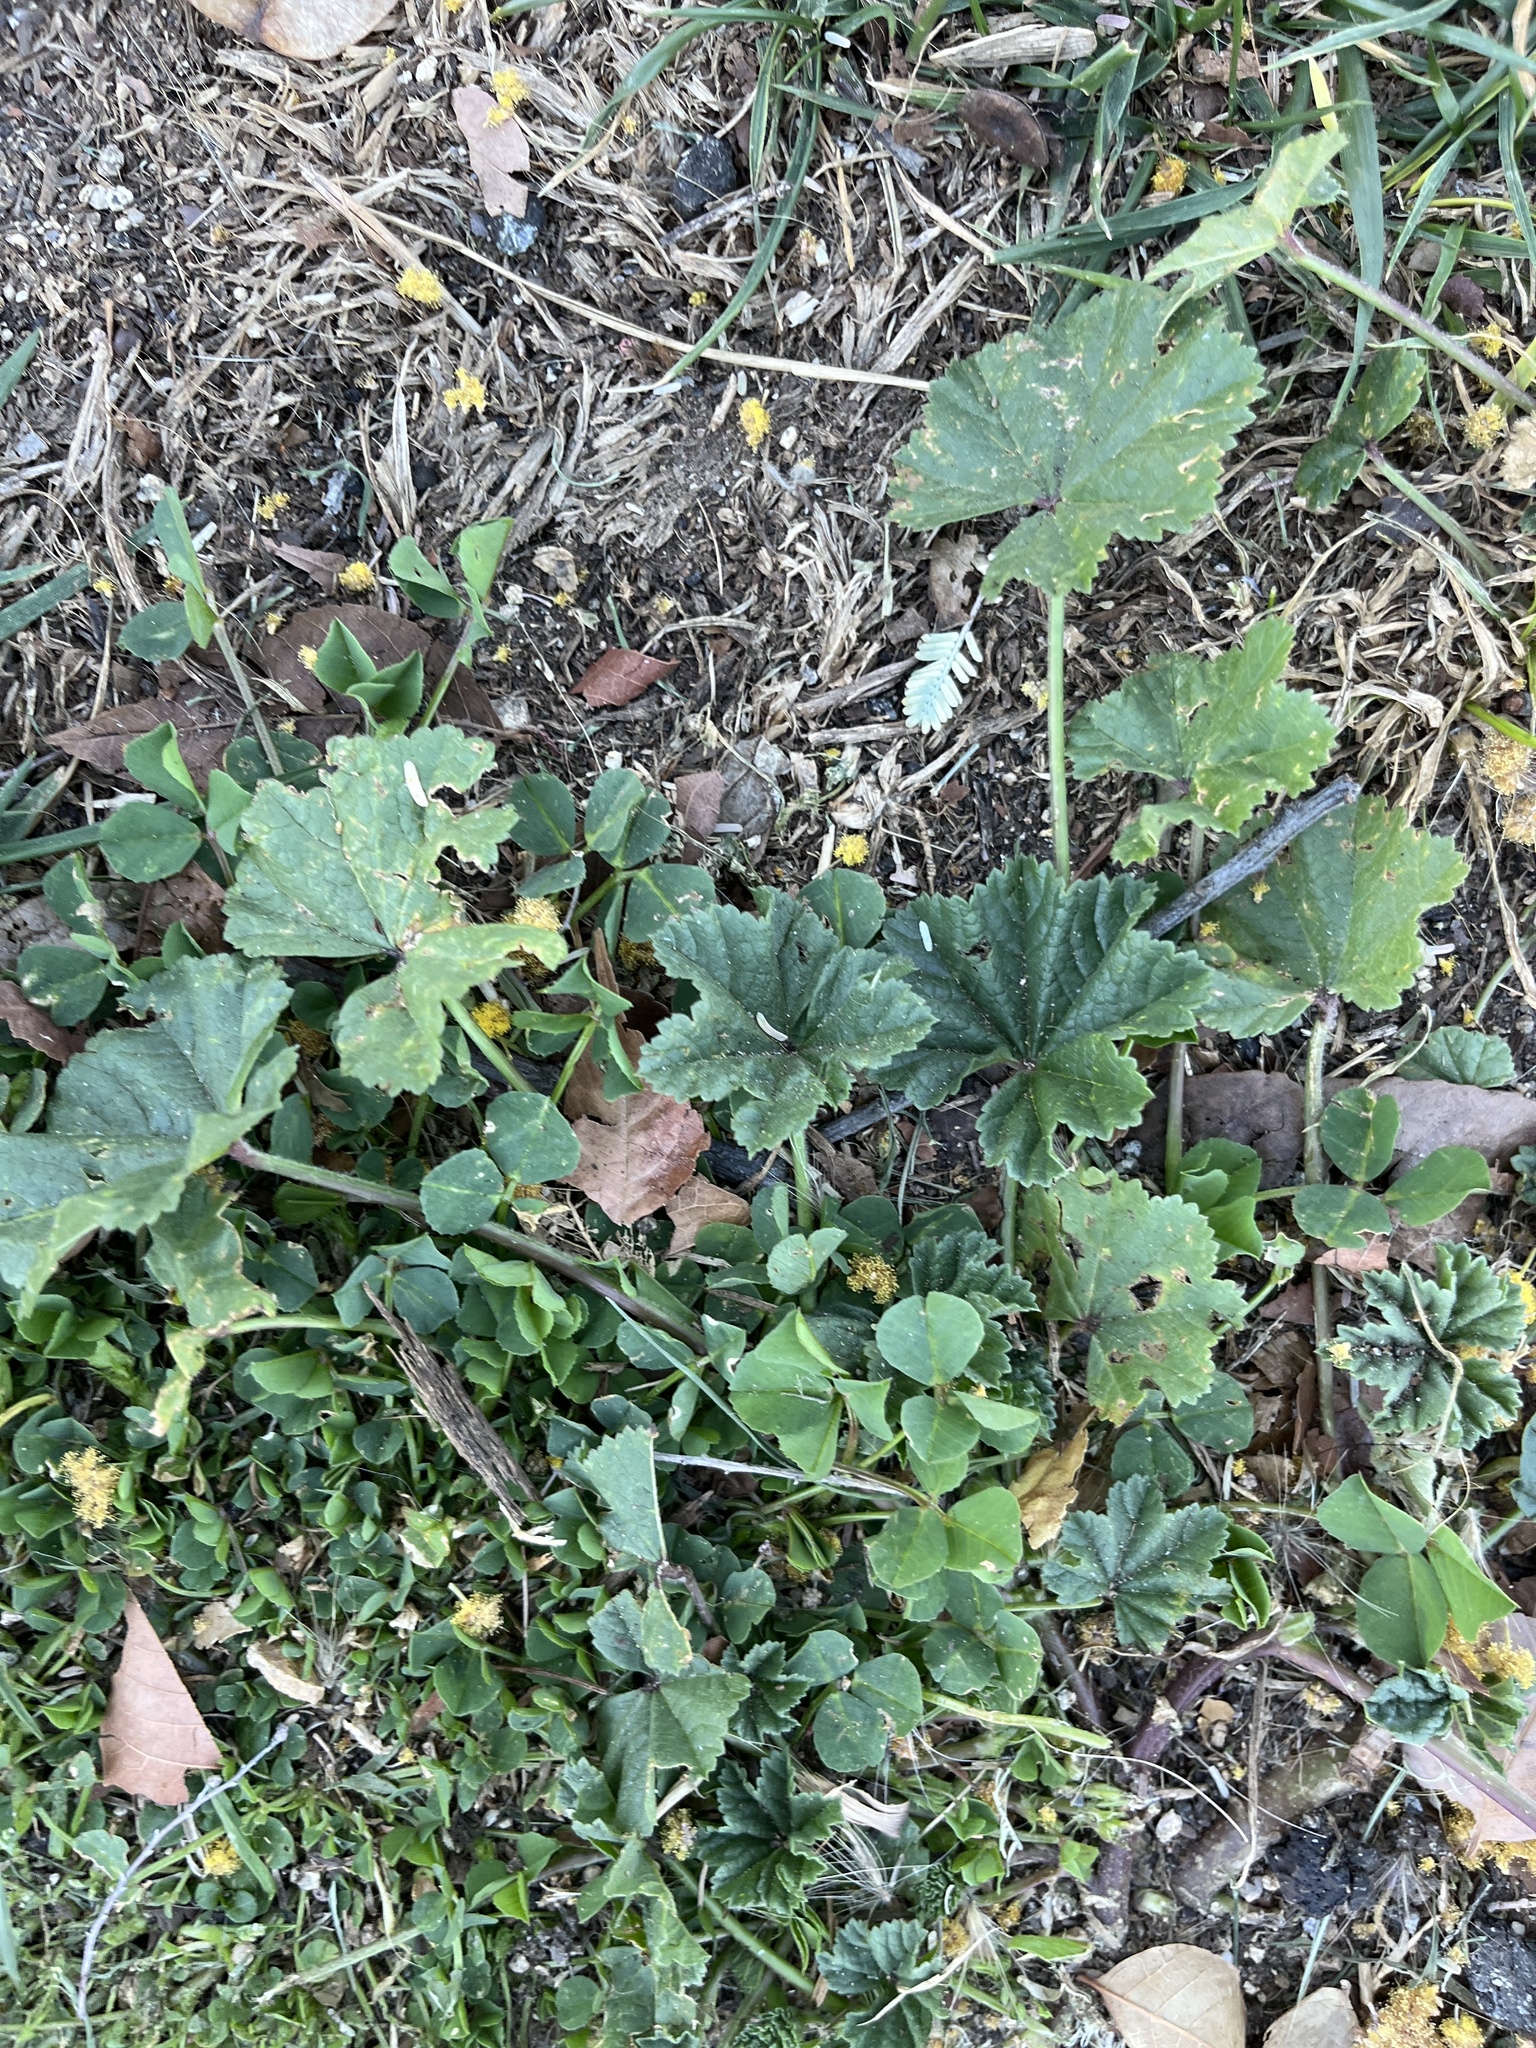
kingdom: Plantae
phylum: Tracheophyta
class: Magnoliopsida
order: Malvales
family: Malvaceae
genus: Malva
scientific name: Malva
